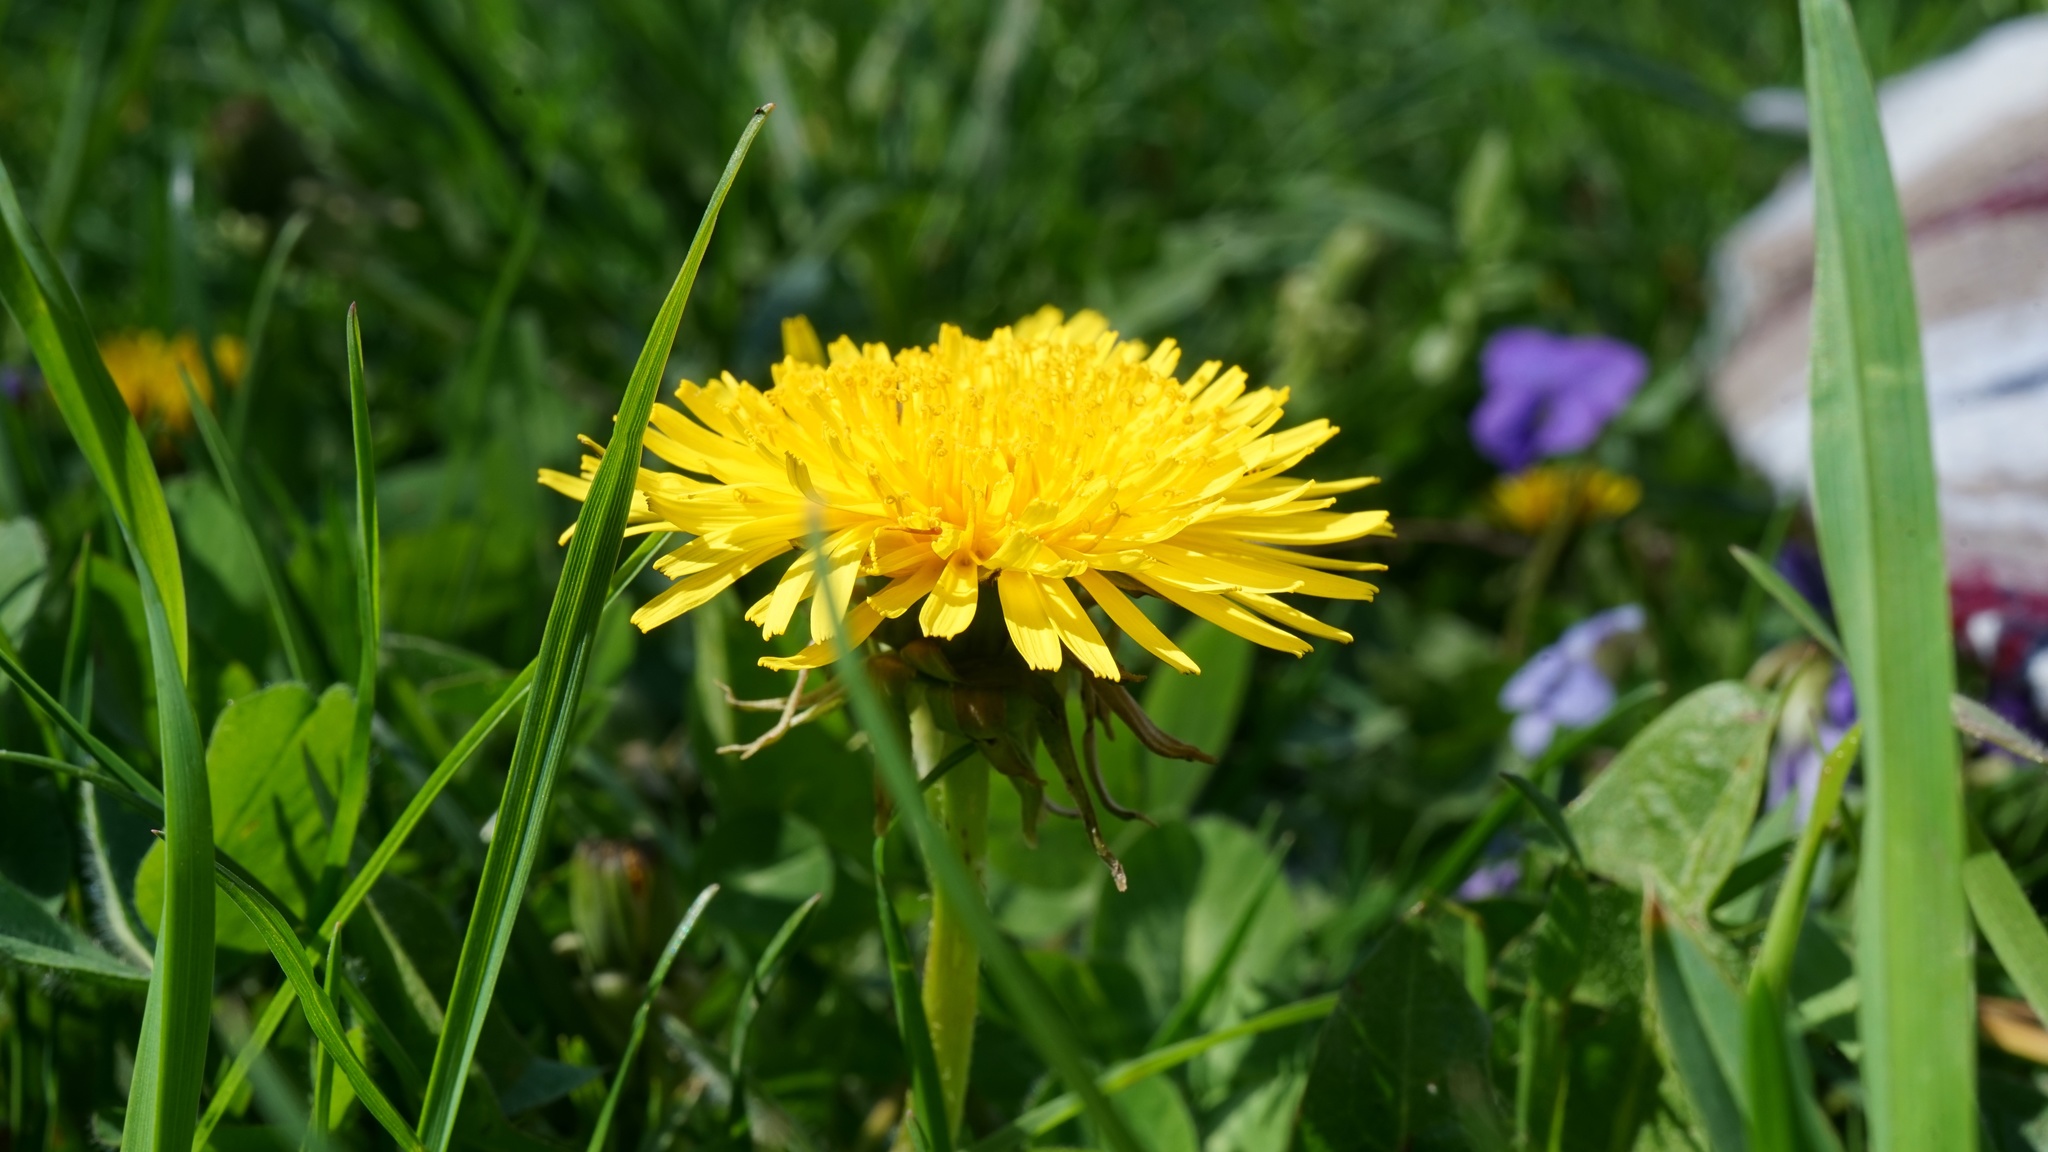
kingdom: Plantae
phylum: Tracheophyta
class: Magnoliopsida
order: Asterales
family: Asteraceae
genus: Taraxacum
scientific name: Taraxacum officinale
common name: Common dandelion
